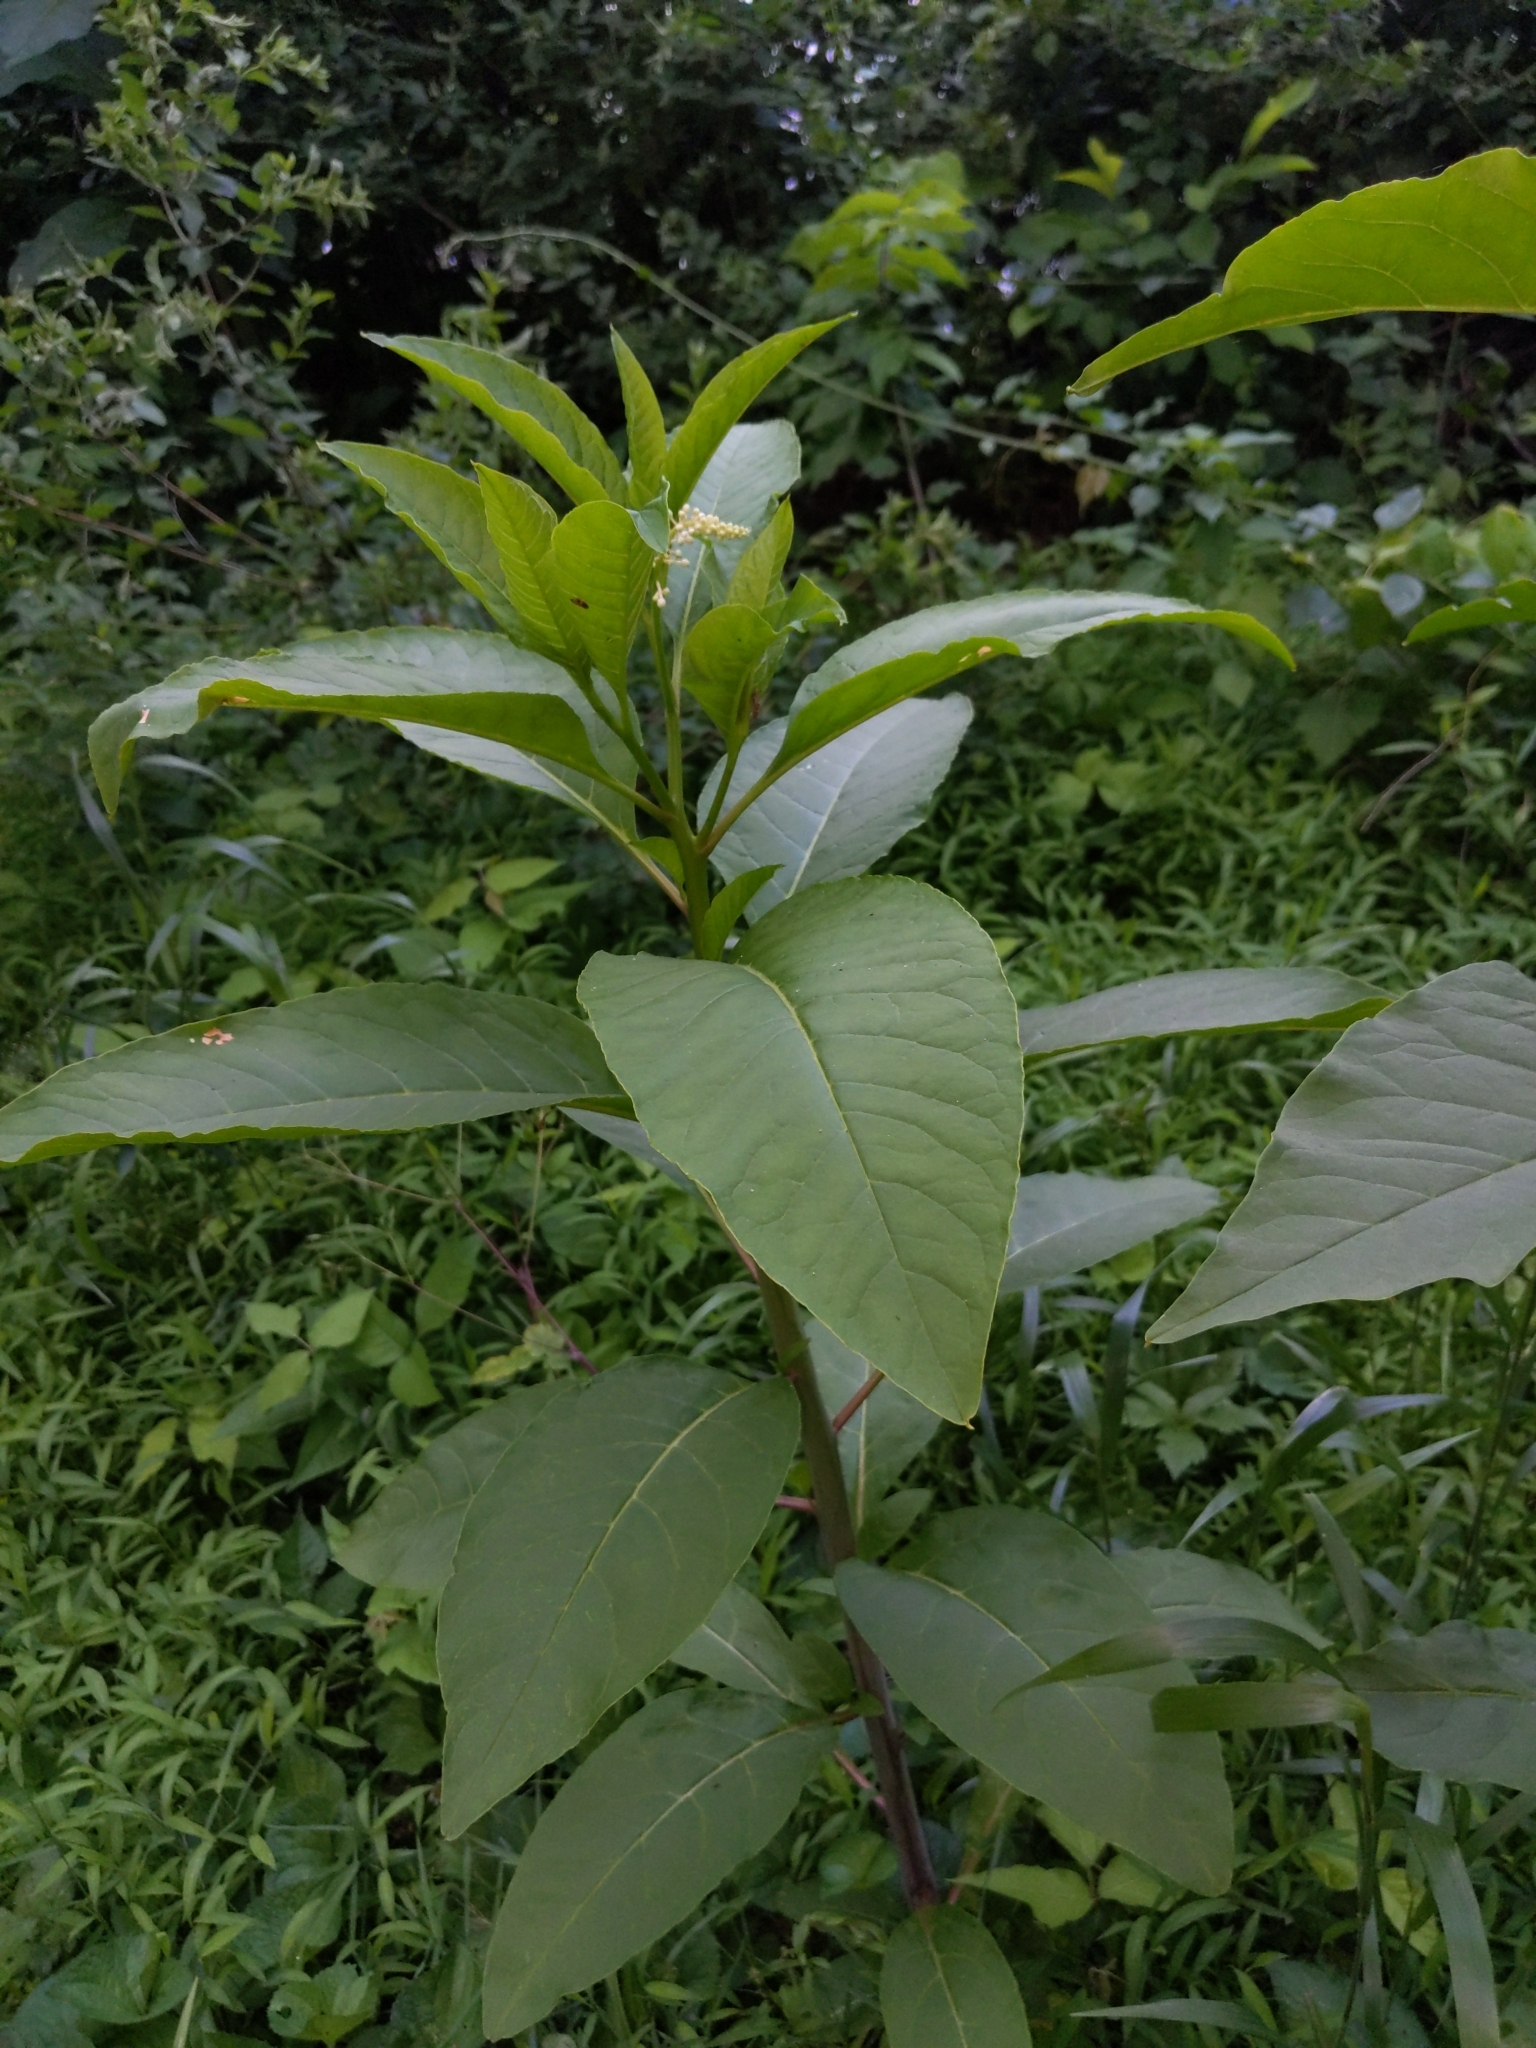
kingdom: Plantae
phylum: Tracheophyta
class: Magnoliopsida
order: Caryophyllales
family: Phytolaccaceae
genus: Phytolacca
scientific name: Phytolacca americana
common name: American pokeweed
